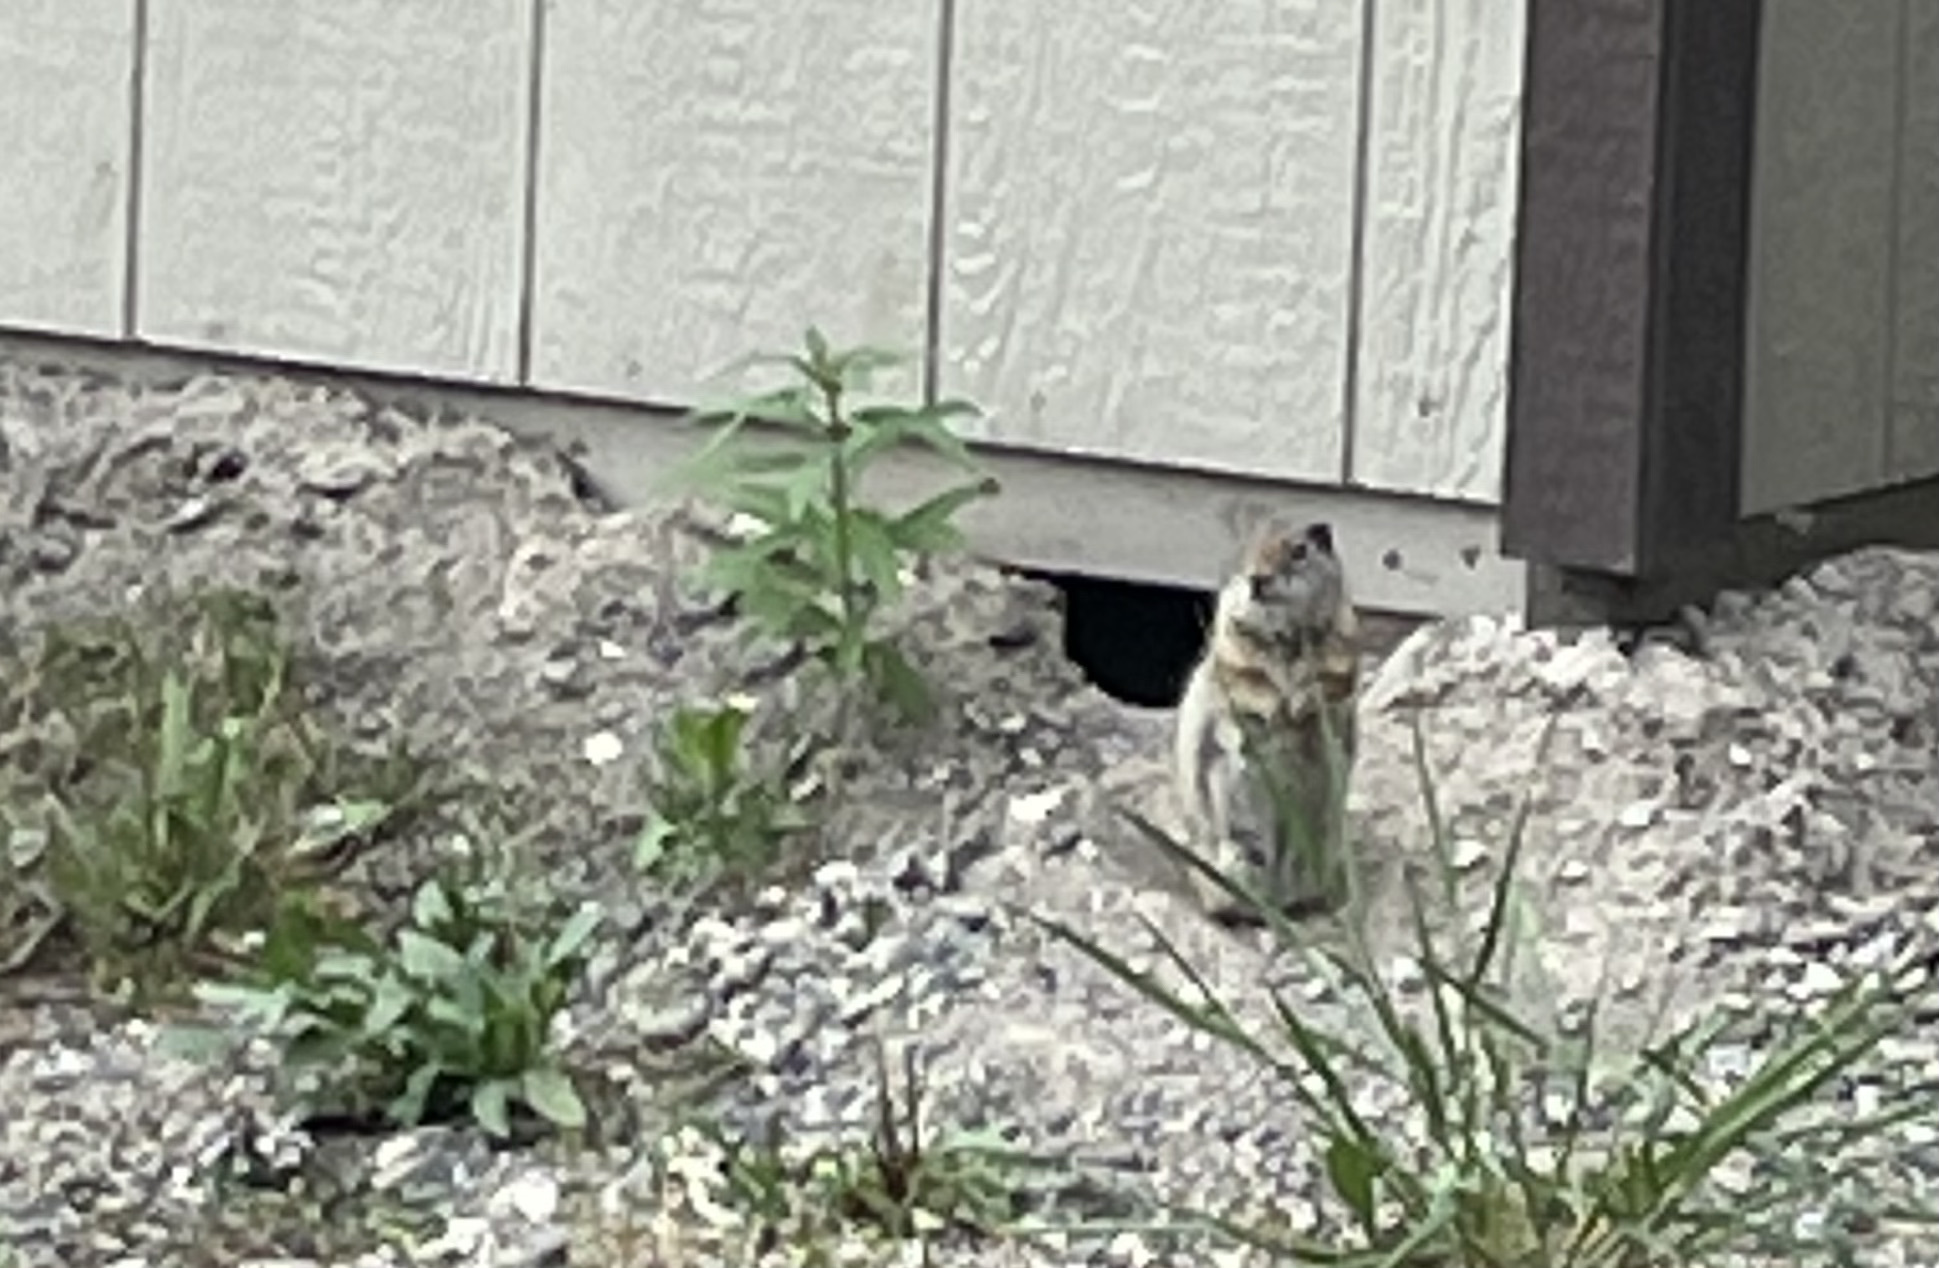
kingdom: Animalia
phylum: Chordata
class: Mammalia
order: Rodentia
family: Sciuridae
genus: Urocitellus
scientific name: Urocitellus armatus
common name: Uinta ground squirrel
